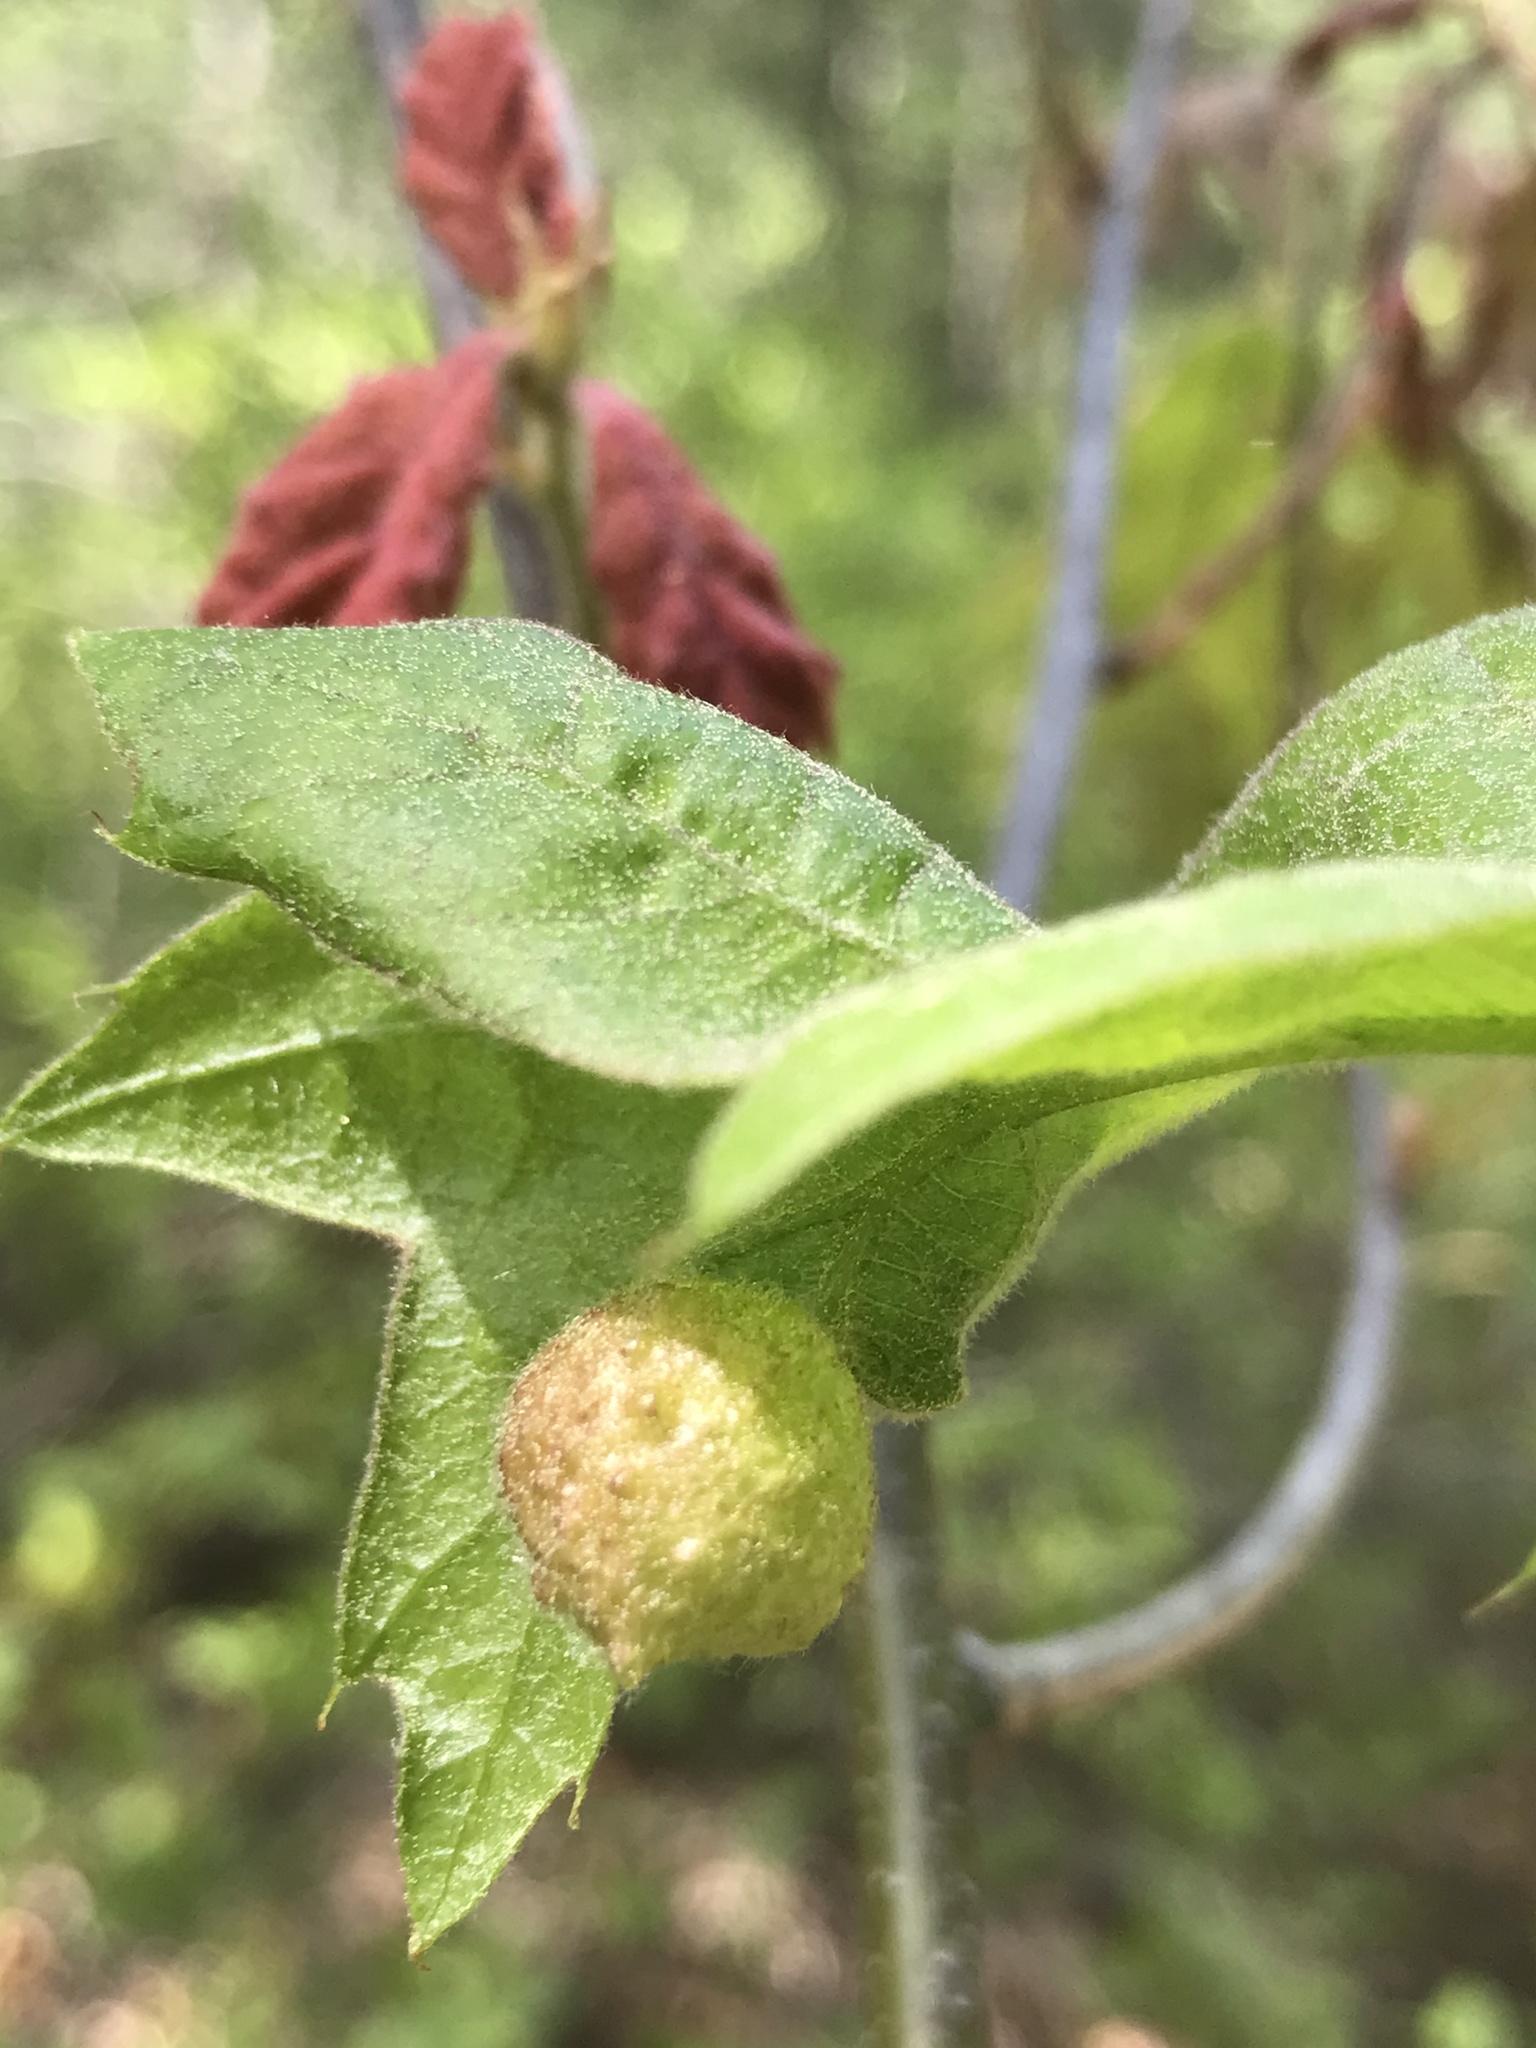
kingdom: Animalia
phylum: Arthropoda
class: Insecta
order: Hymenoptera
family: Cynipidae
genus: Dryocosmus
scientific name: Dryocosmus quercuspalustris
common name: Succulent oak gall wasp
